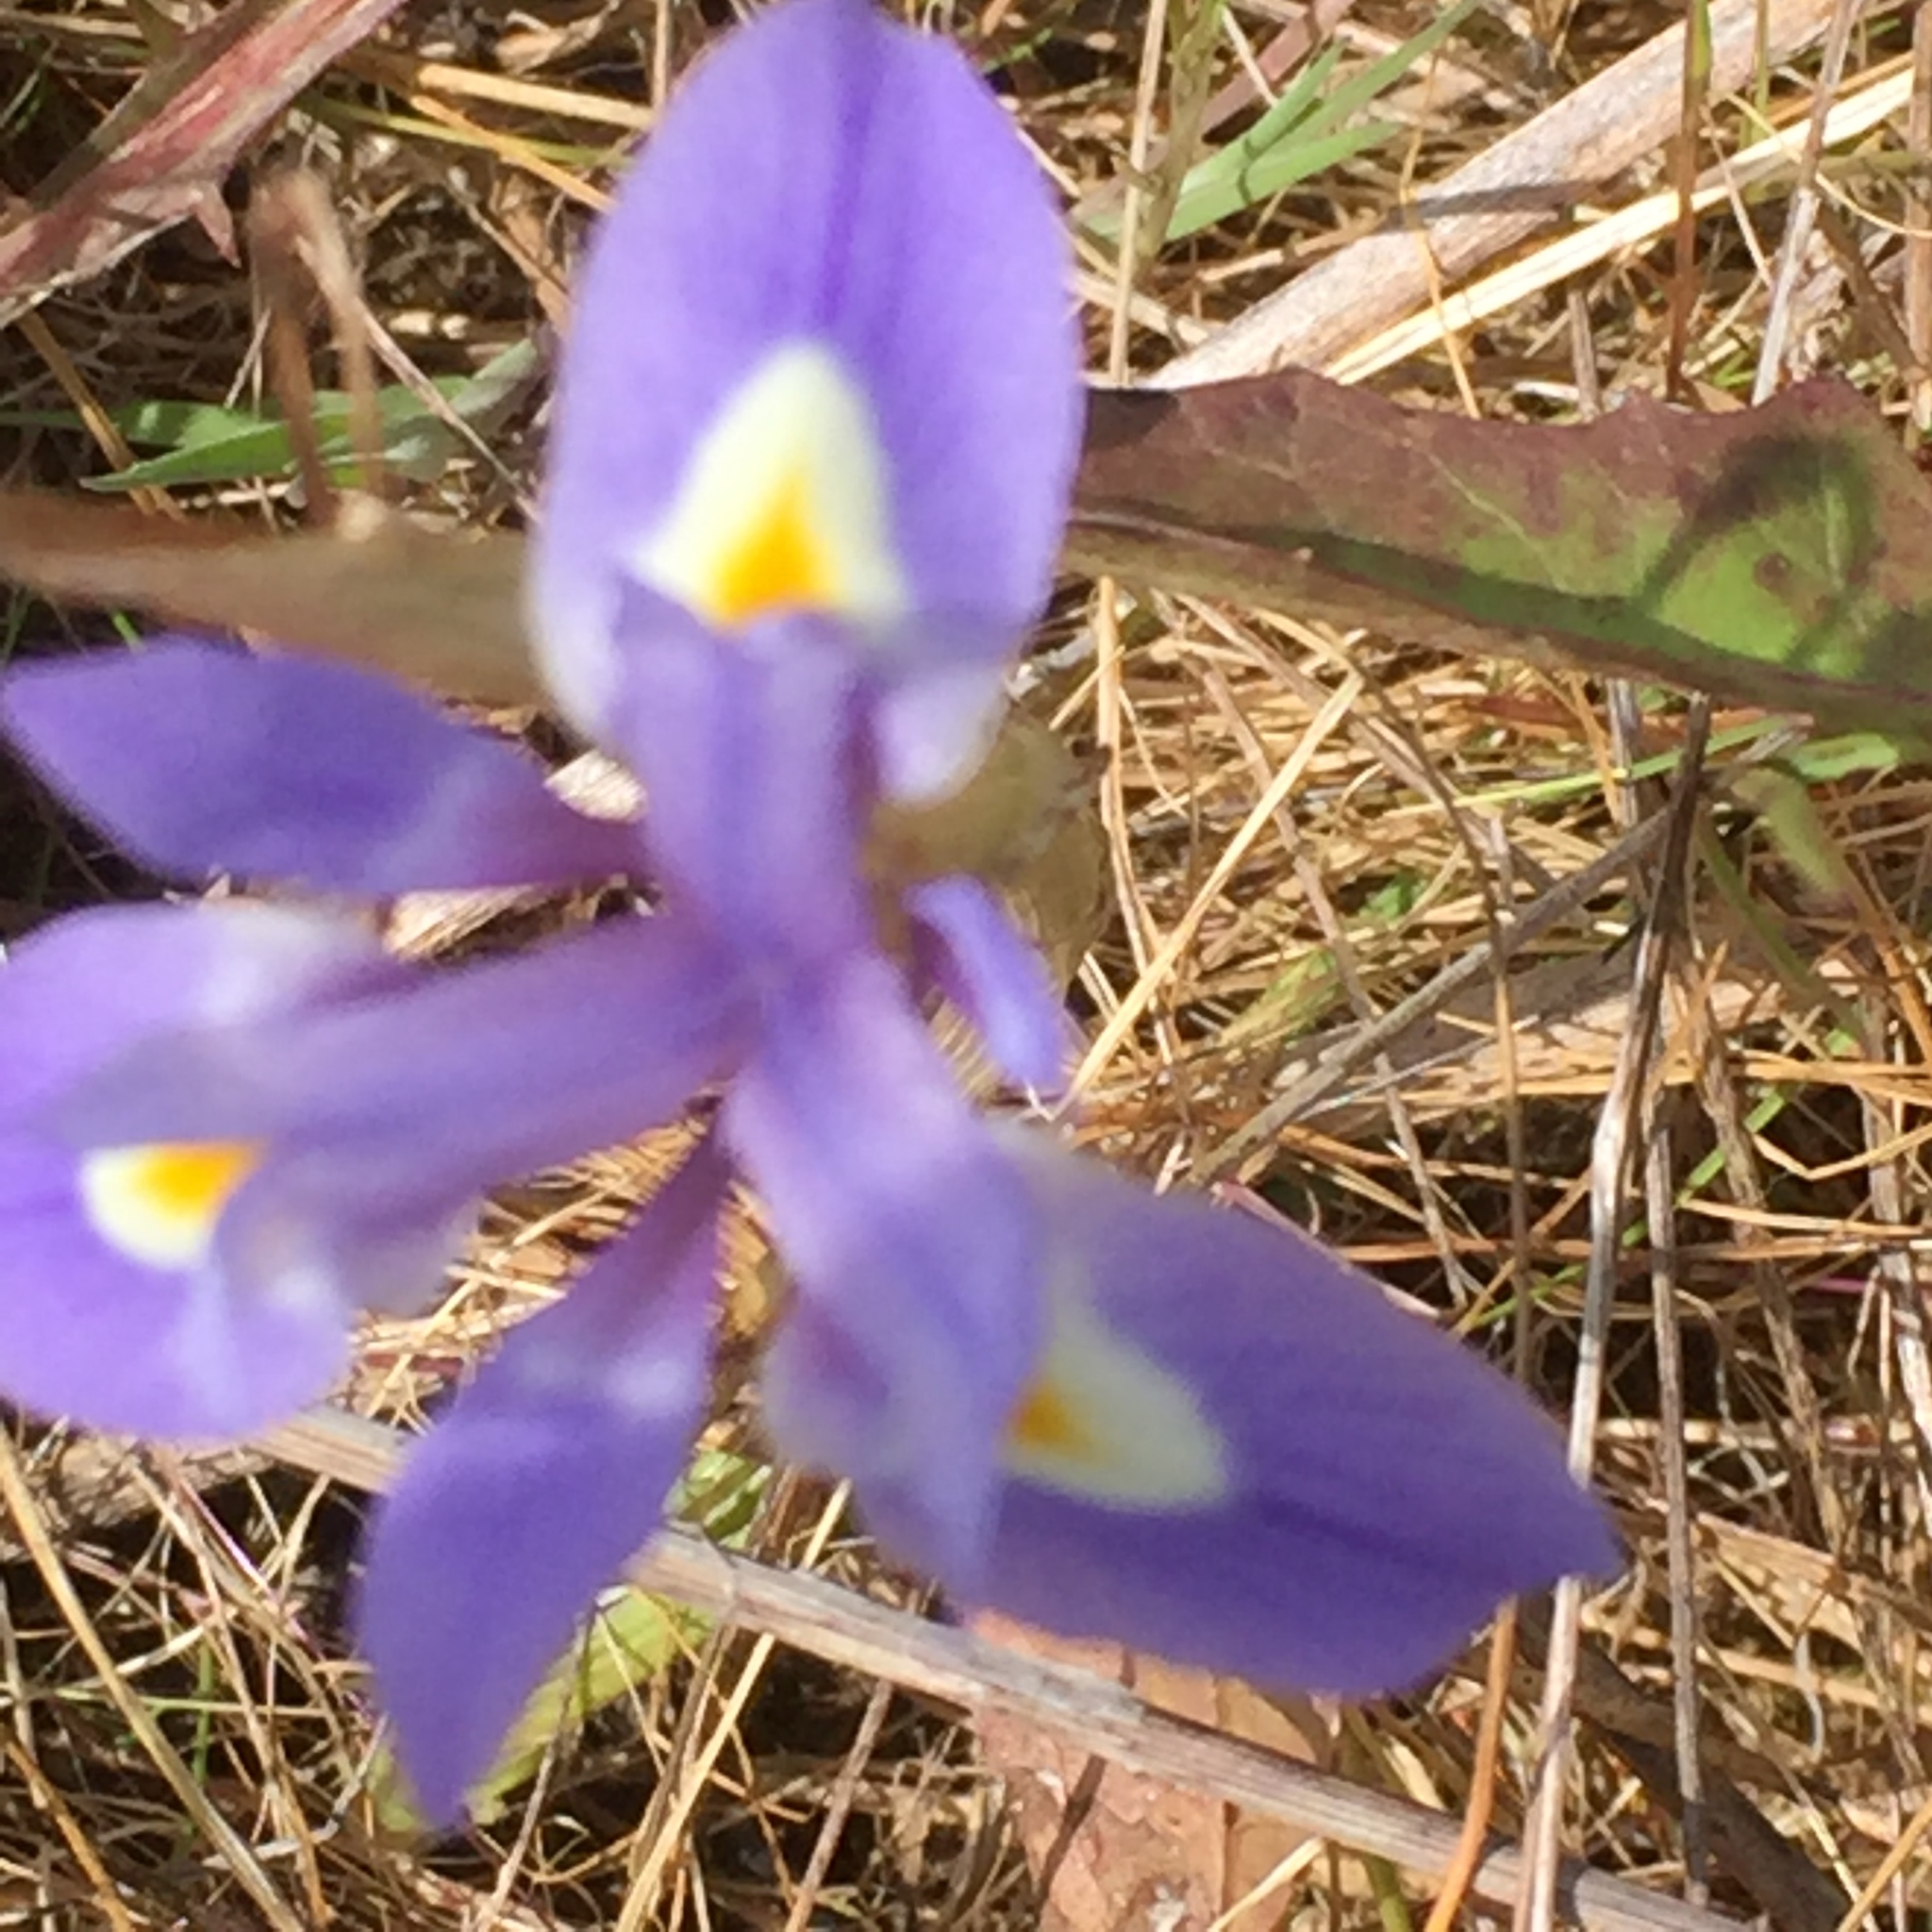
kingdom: Plantae
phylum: Tracheophyta
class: Liliopsida
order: Asparagales
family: Iridaceae
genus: Moraea
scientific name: Moraea sisyrinchium
